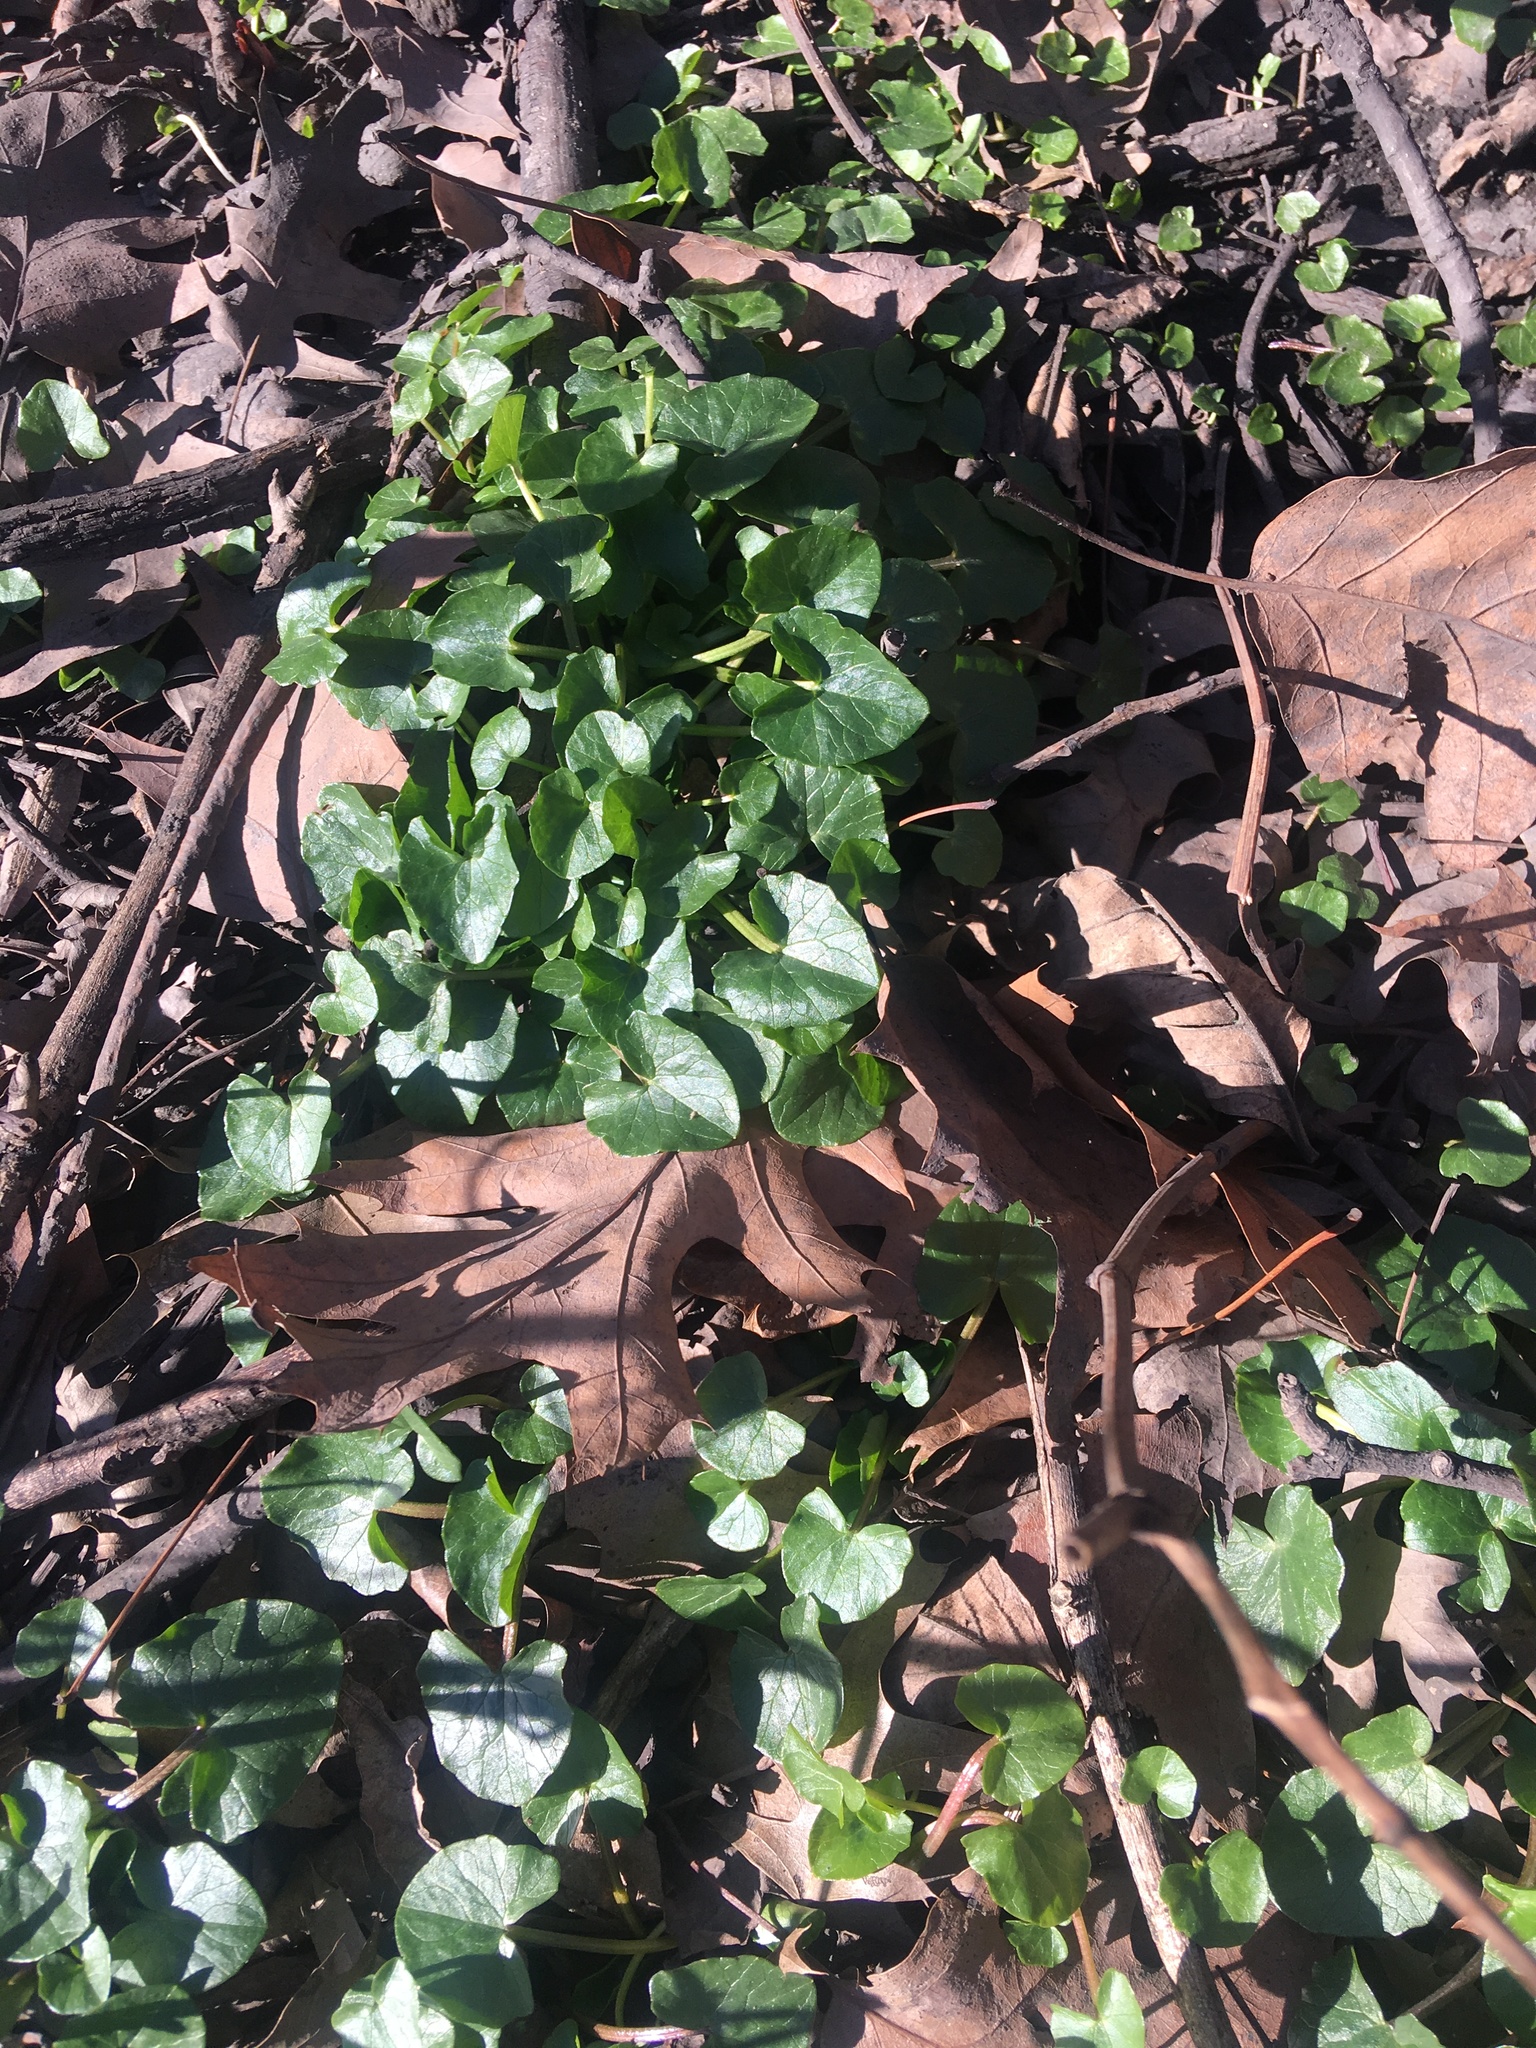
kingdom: Plantae
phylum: Tracheophyta
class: Magnoliopsida
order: Ranunculales
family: Ranunculaceae
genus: Ficaria
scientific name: Ficaria verna
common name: Lesser celandine
